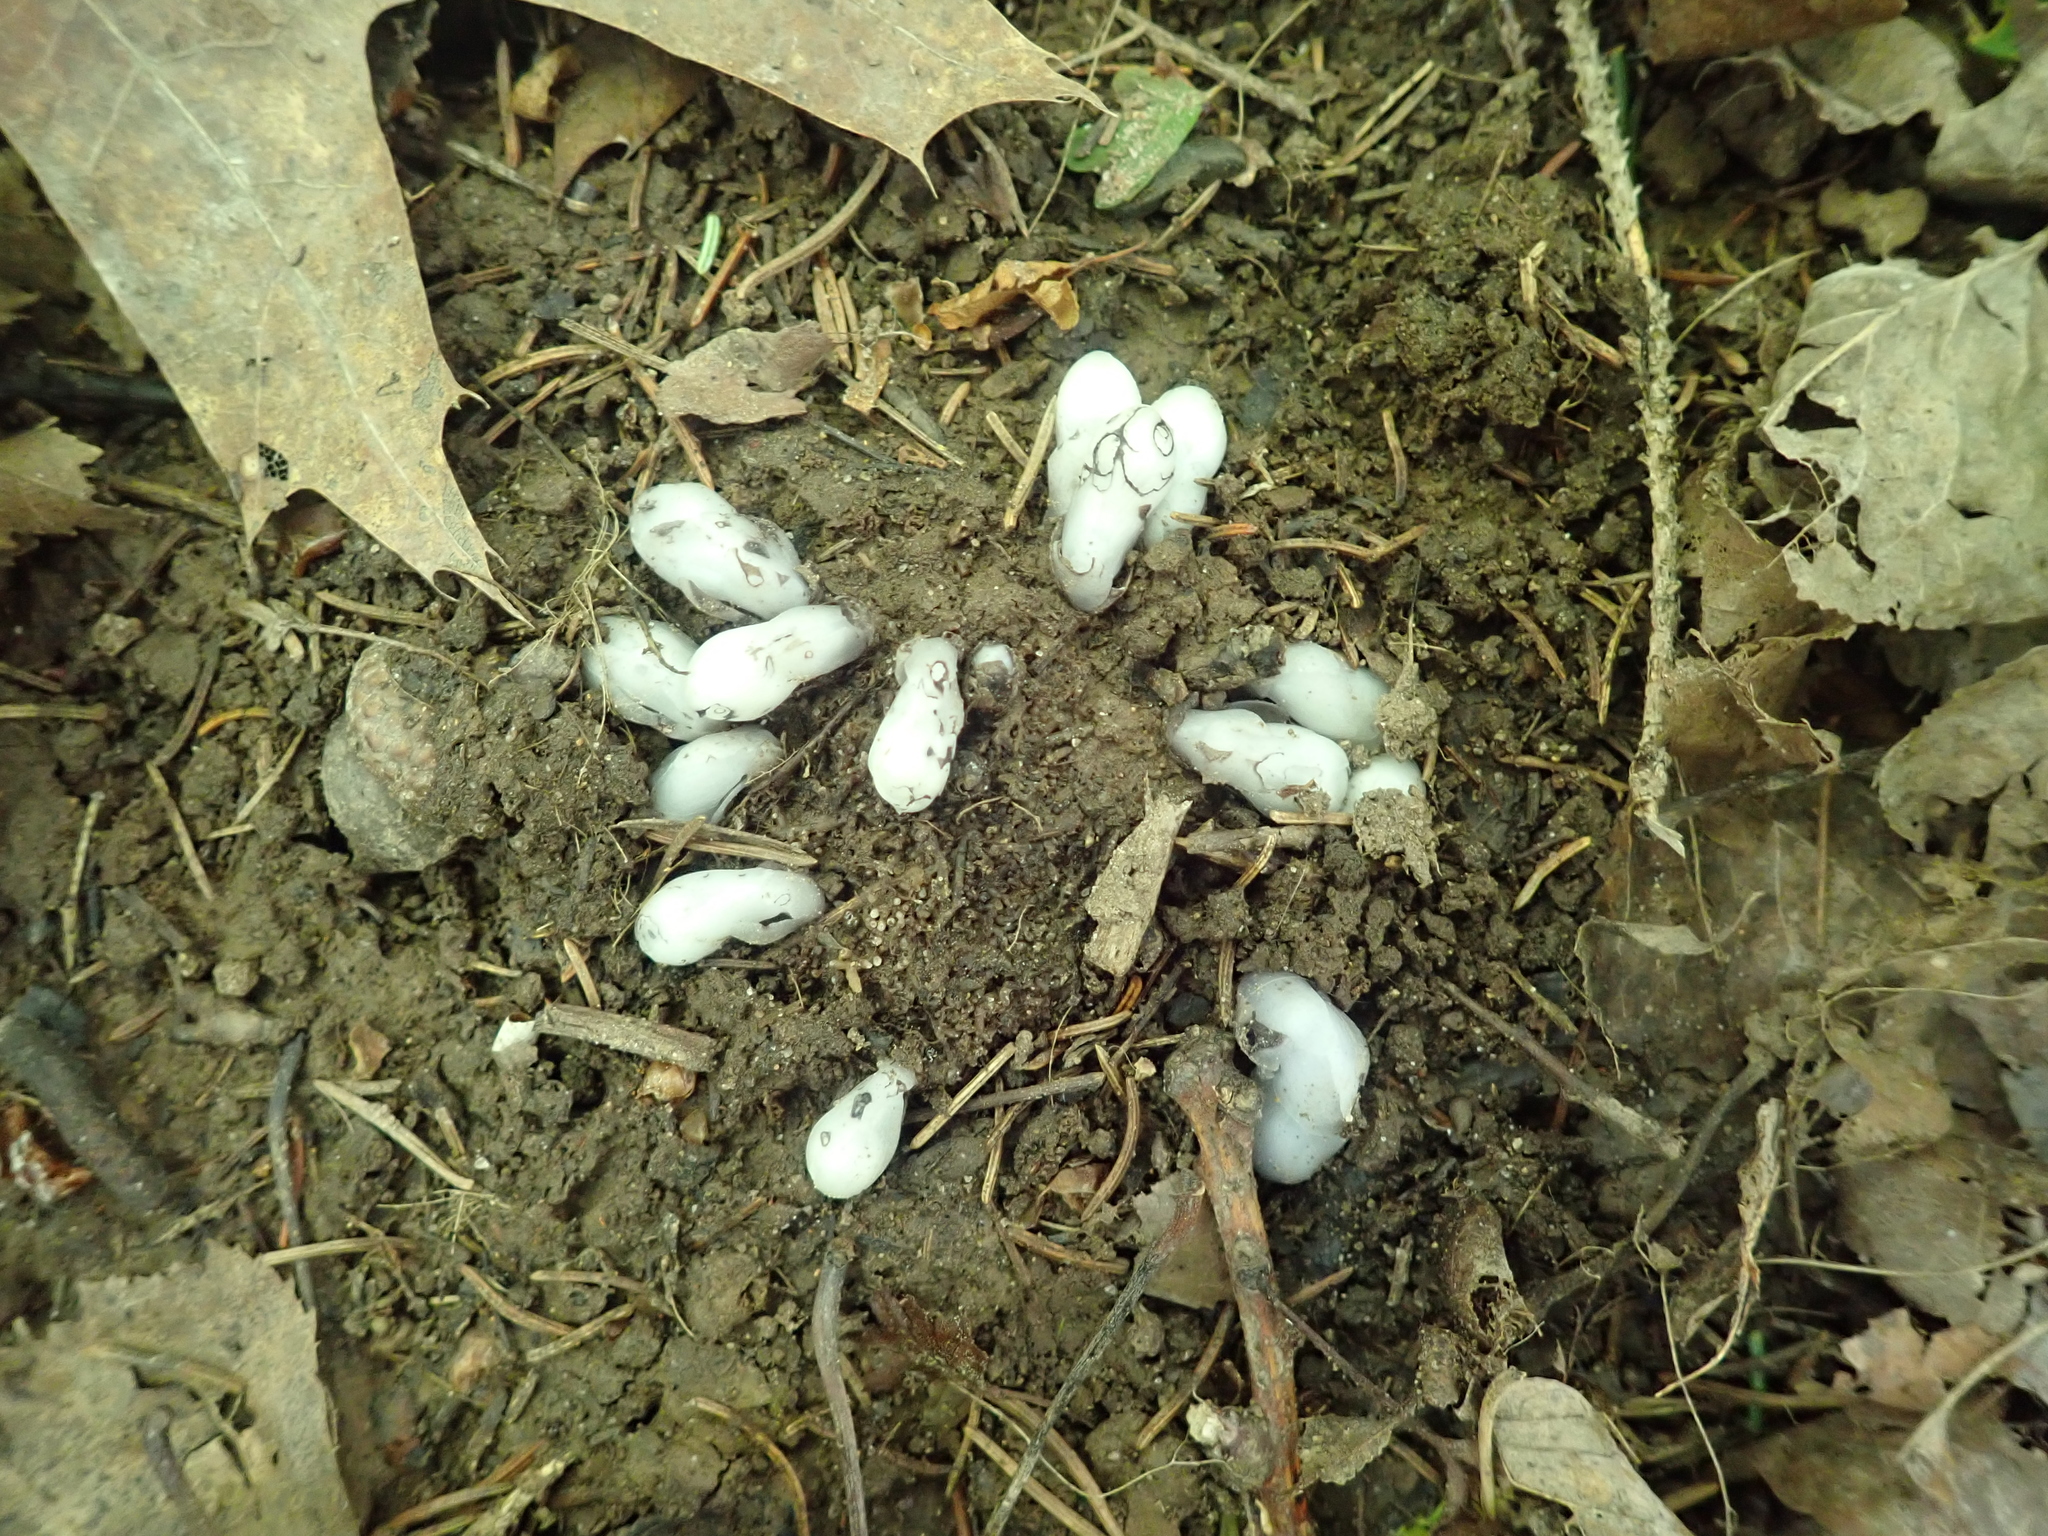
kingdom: Plantae
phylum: Tracheophyta
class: Magnoliopsida
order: Ericales
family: Ericaceae
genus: Monotropa
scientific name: Monotropa uniflora
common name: Convulsion root
